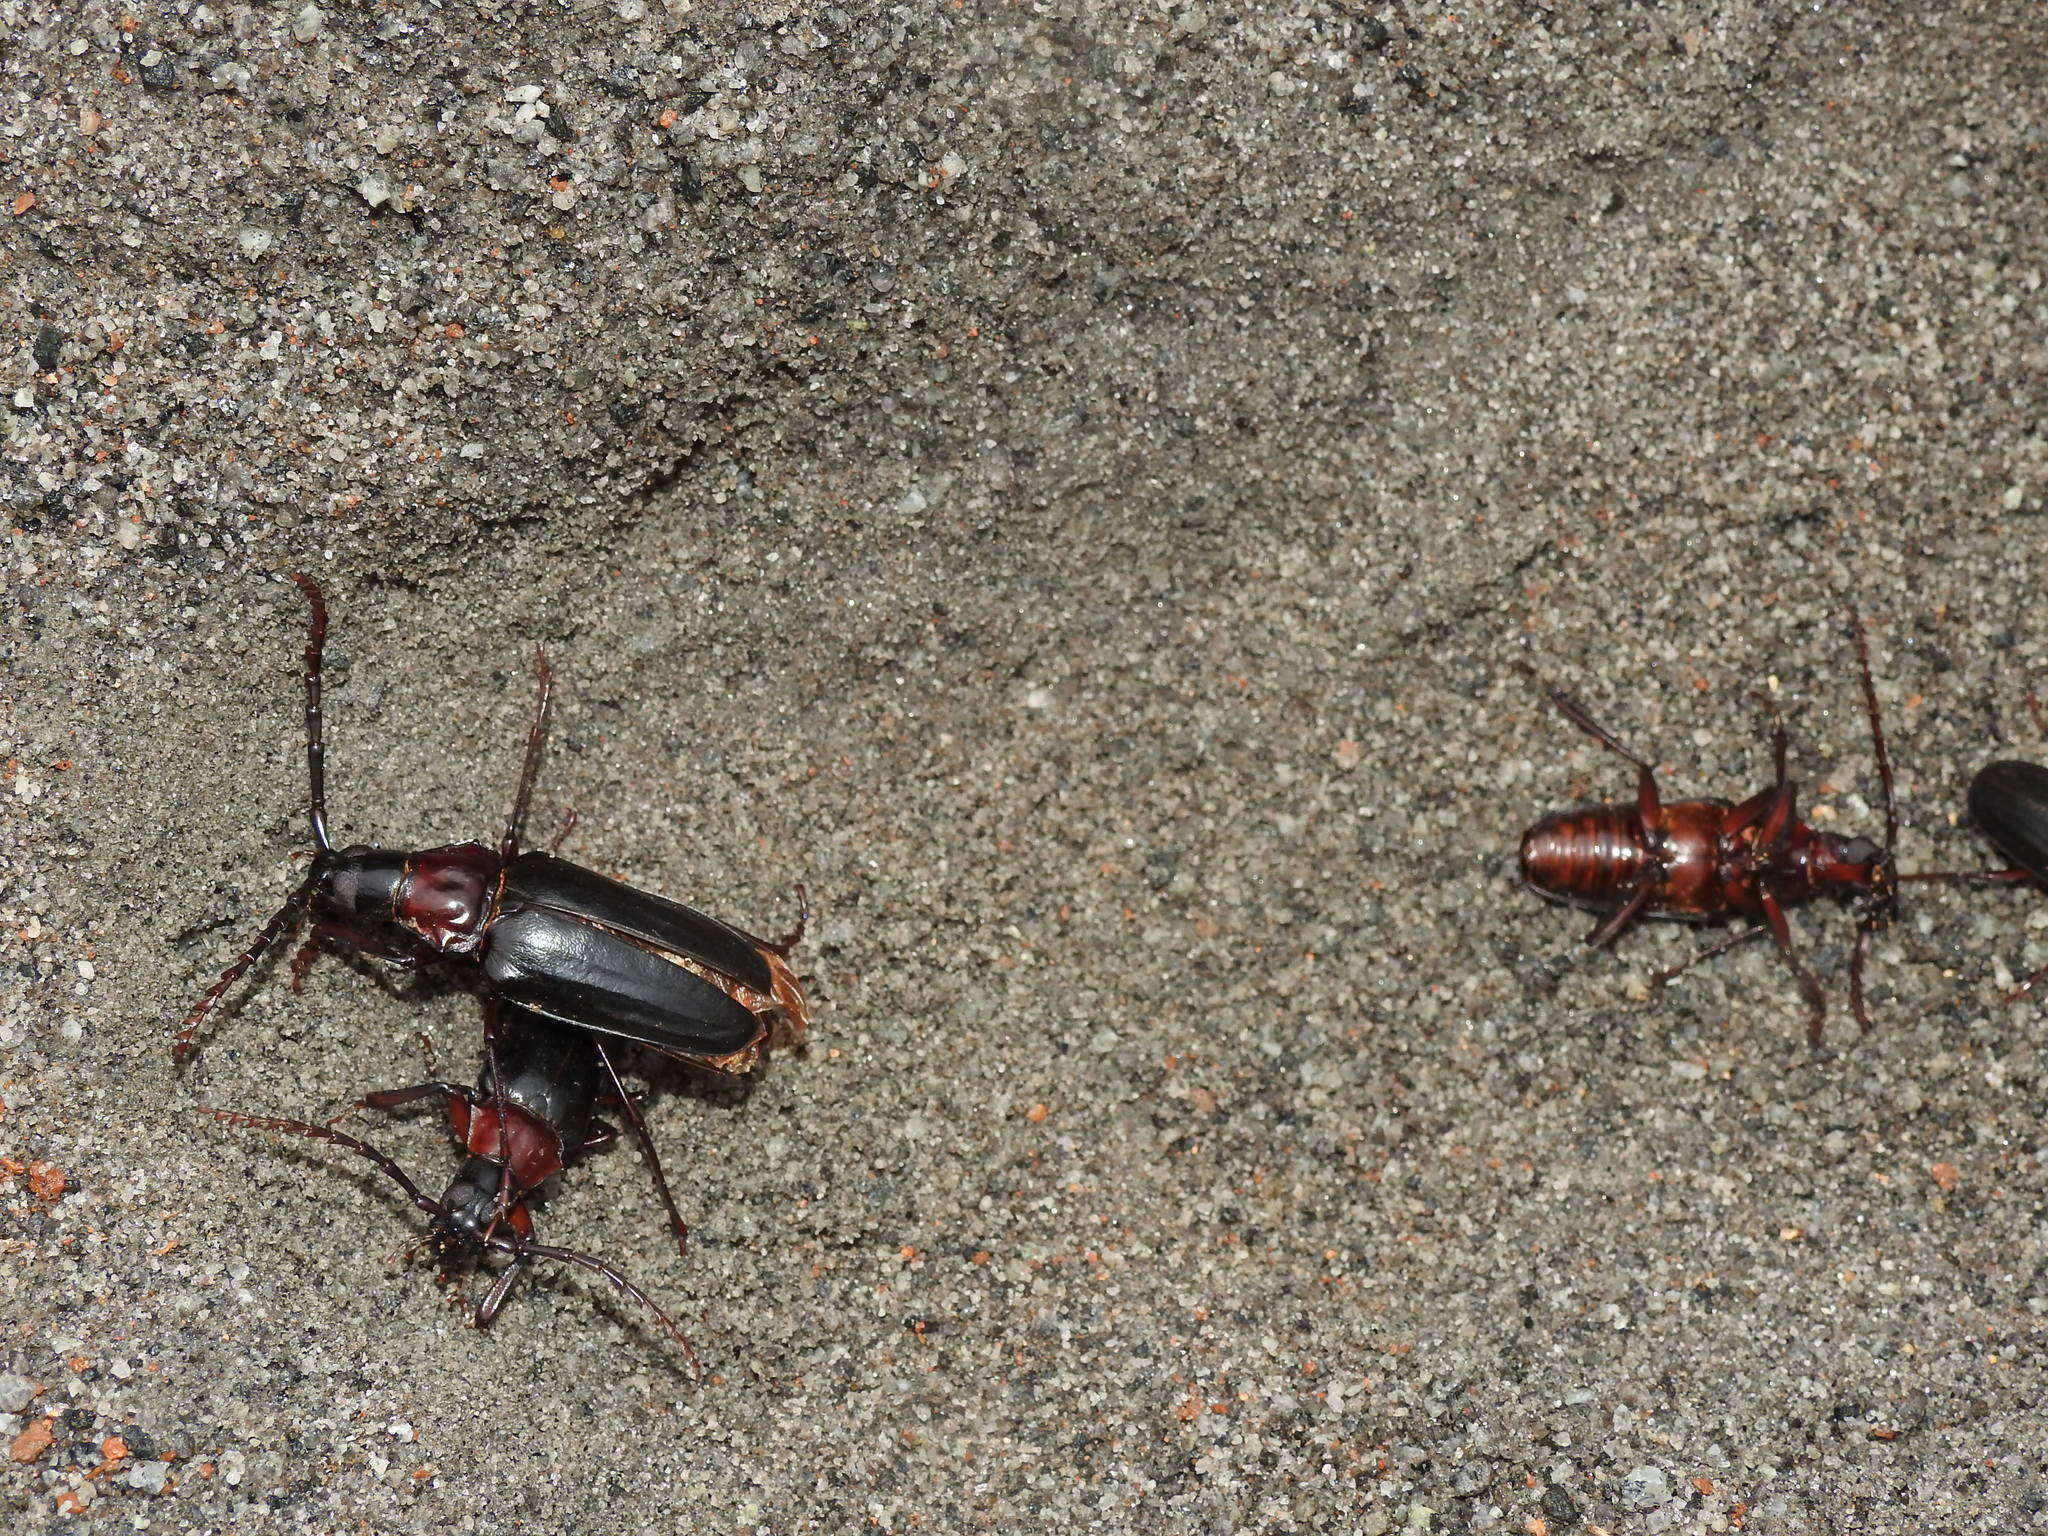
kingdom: Animalia
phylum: Arthropoda
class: Insecta
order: Coleoptera
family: Cerambycidae
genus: Dorysthenes
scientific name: Dorysthenes rostratus
